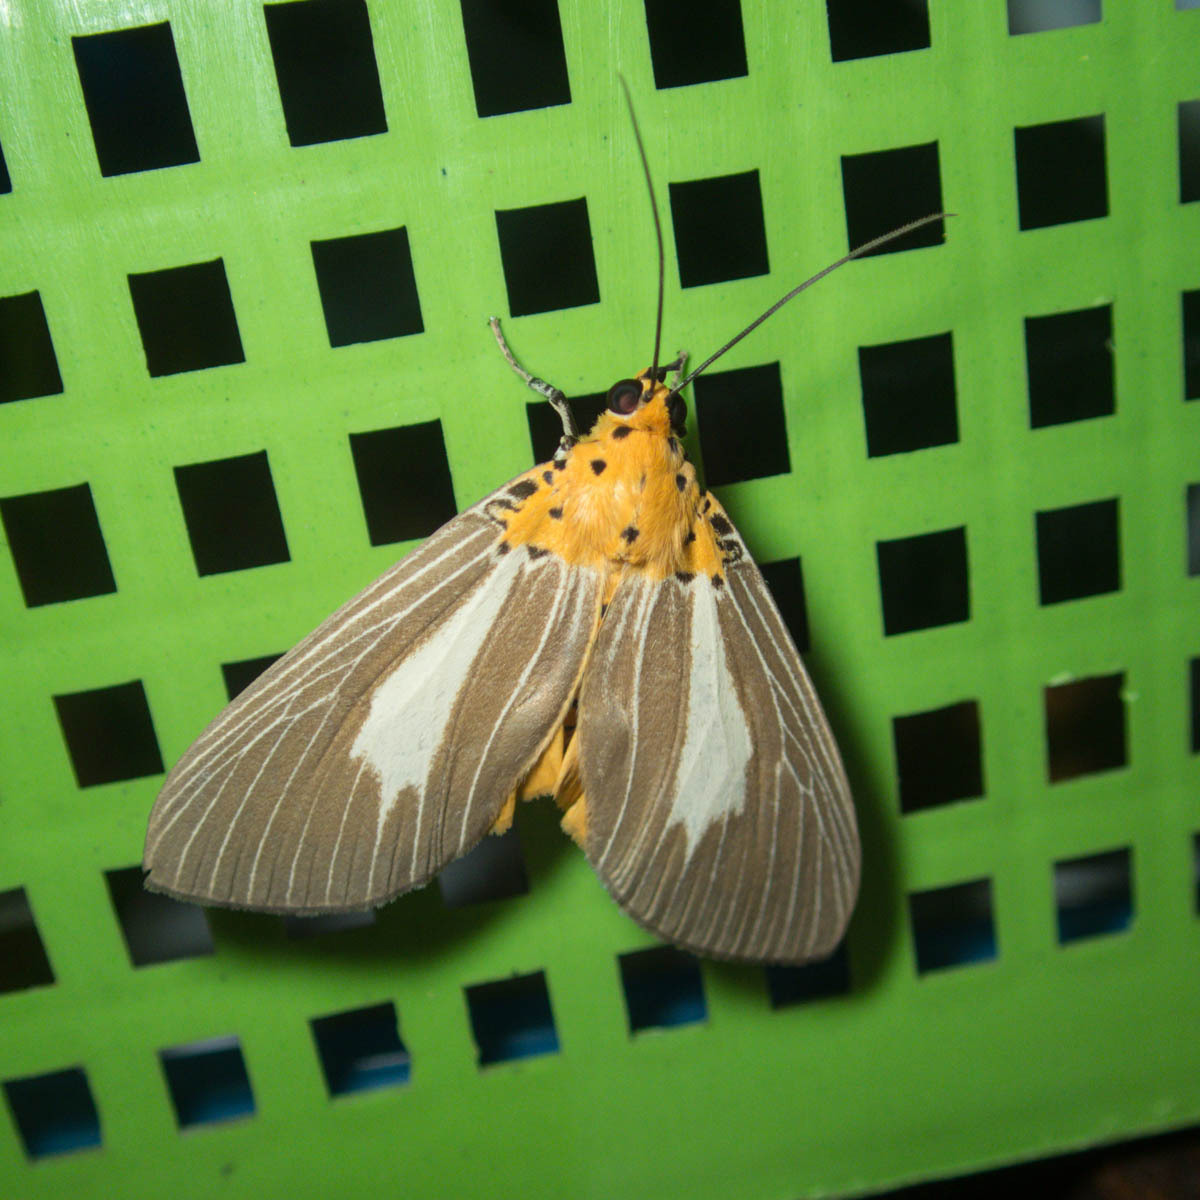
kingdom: Animalia
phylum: Arthropoda
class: Insecta
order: Lepidoptera
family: Erebidae
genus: Asota
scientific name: Asota subsimilis
